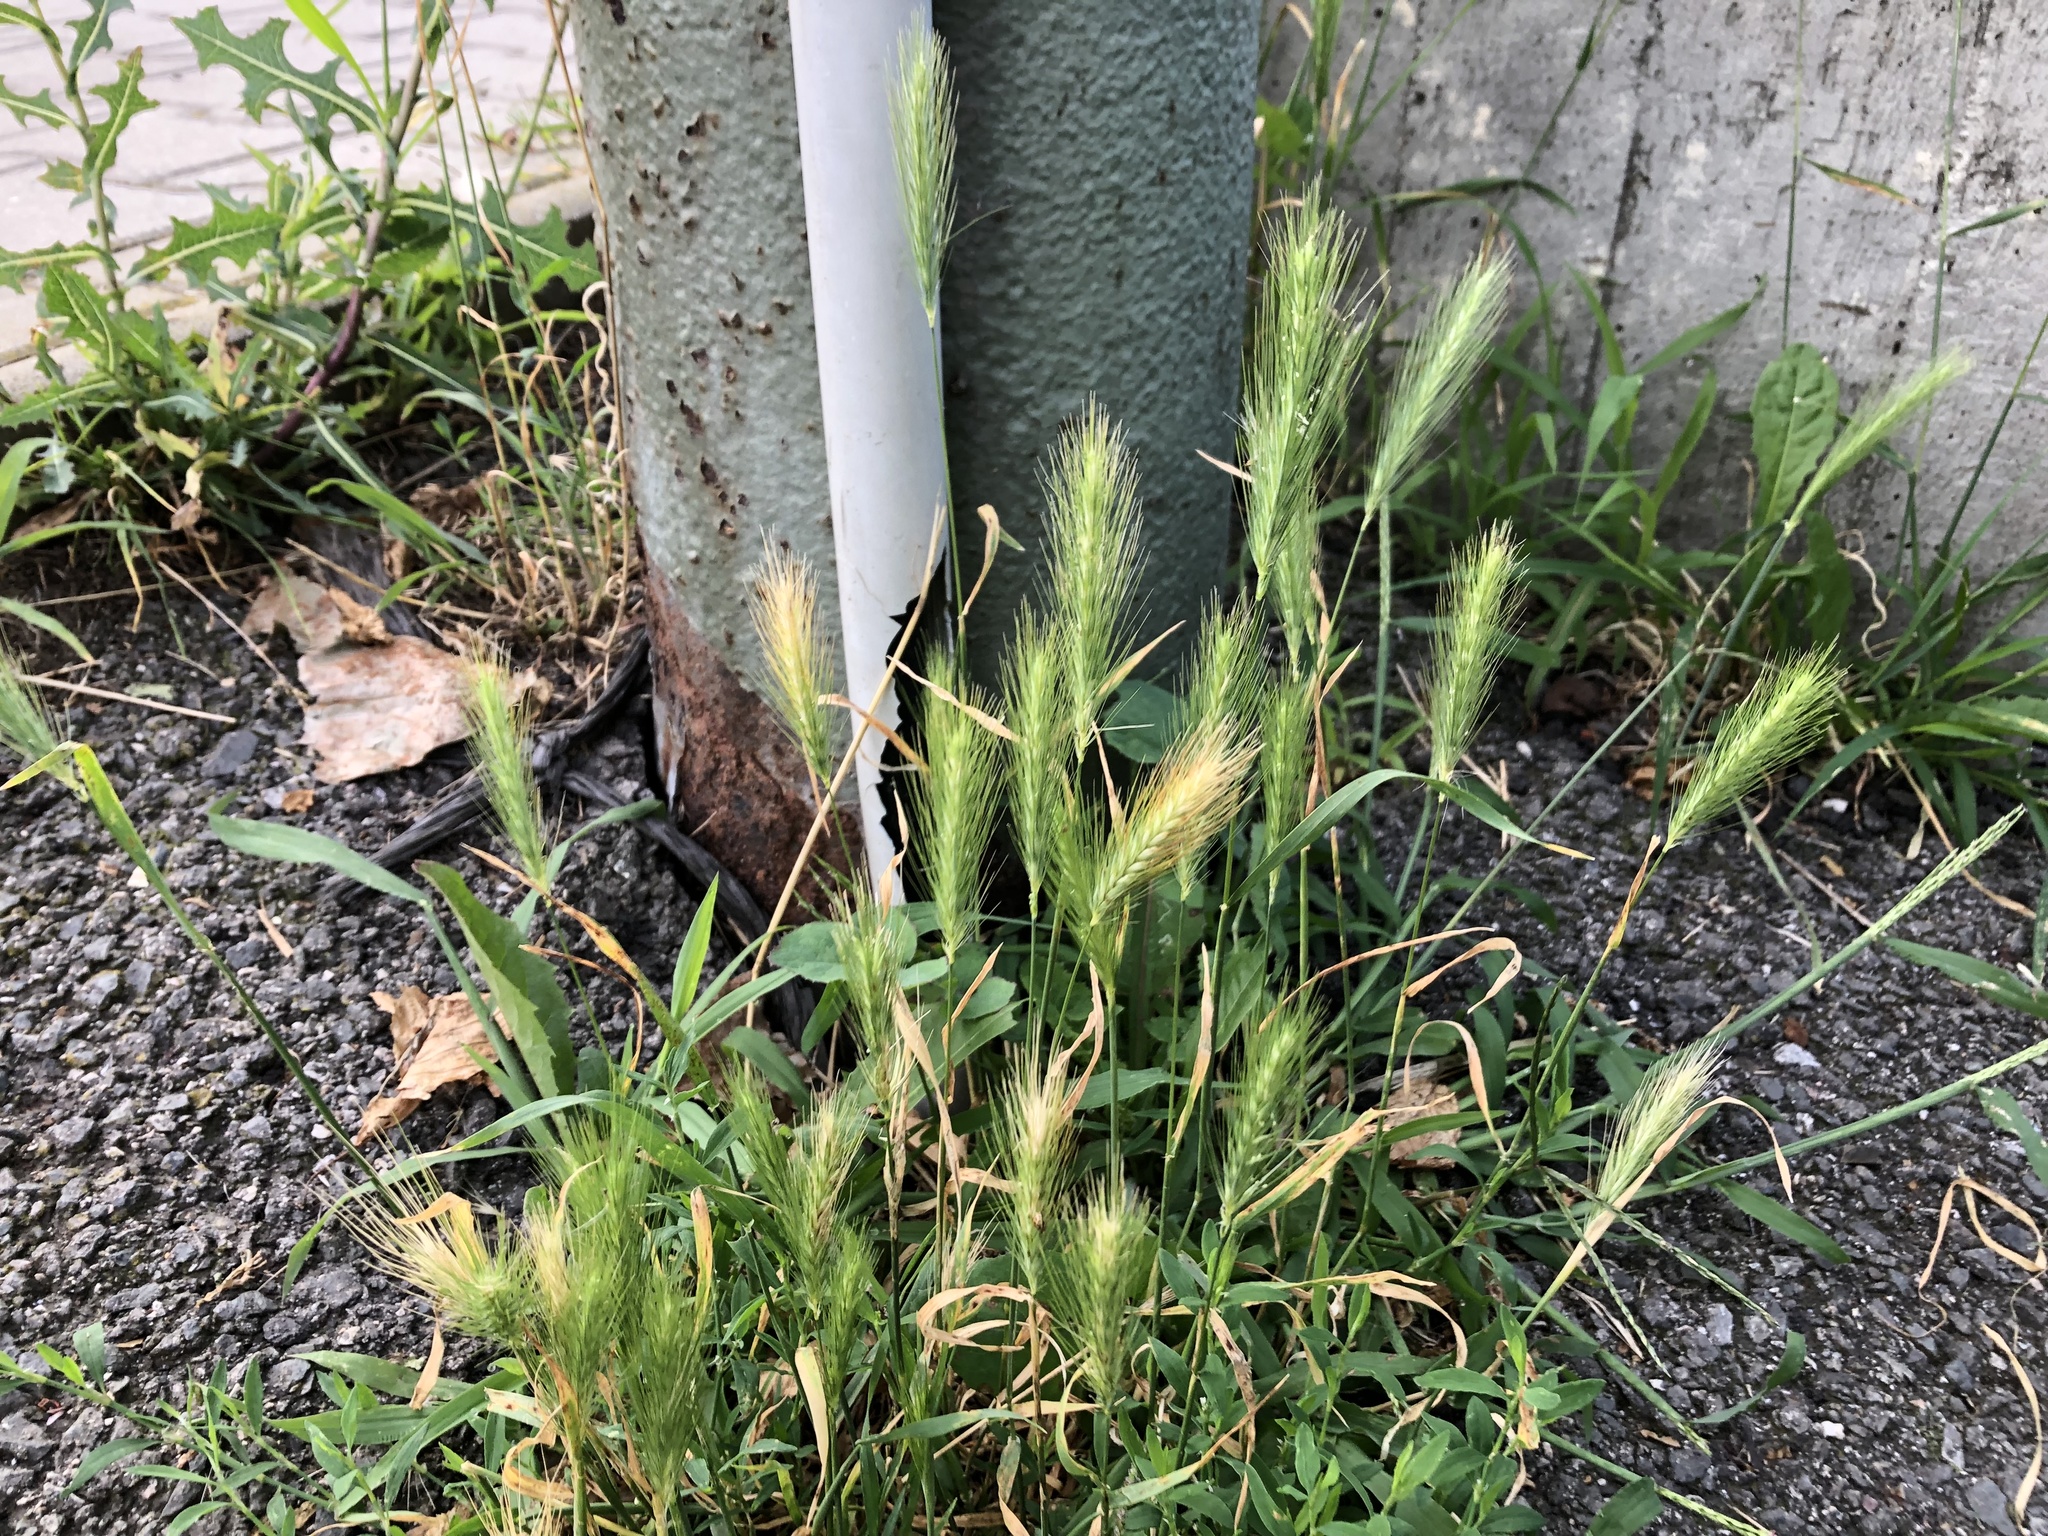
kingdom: Plantae
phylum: Tracheophyta
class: Liliopsida
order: Poales
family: Poaceae
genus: Hordeum
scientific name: Hordeum murinum
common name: Wall barley
